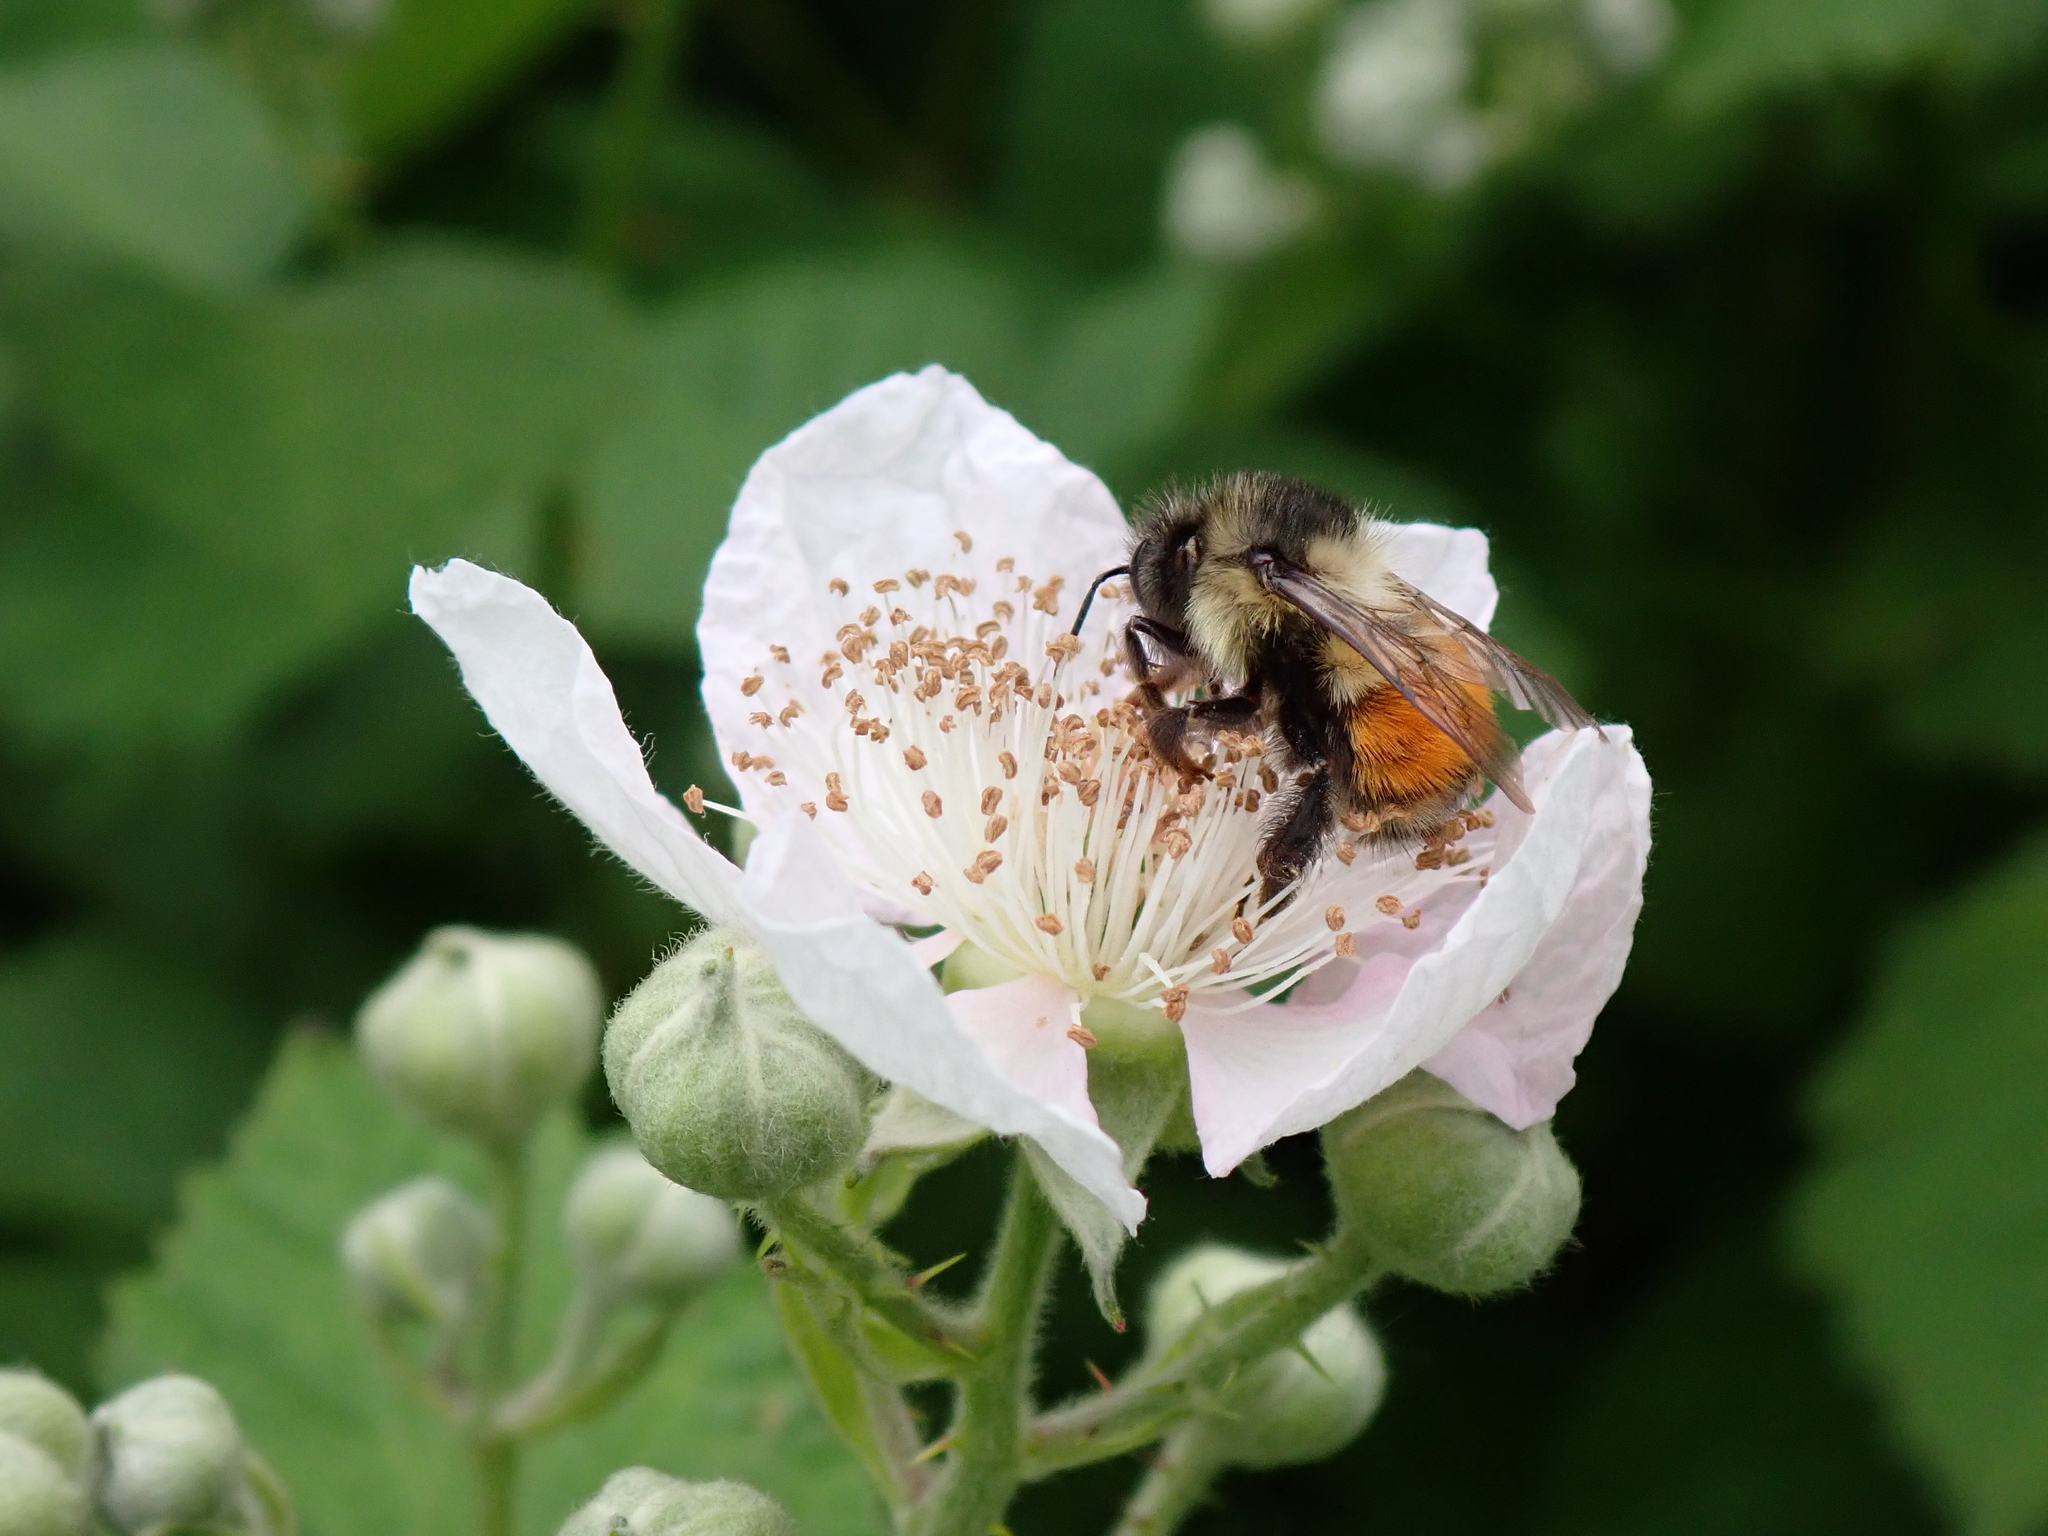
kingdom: Animalia
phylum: Arthropoda
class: Insecta
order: Hymenoptera
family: Apidae
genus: Bombus
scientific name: Bombus melanopygus
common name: Black tail bumble bee
